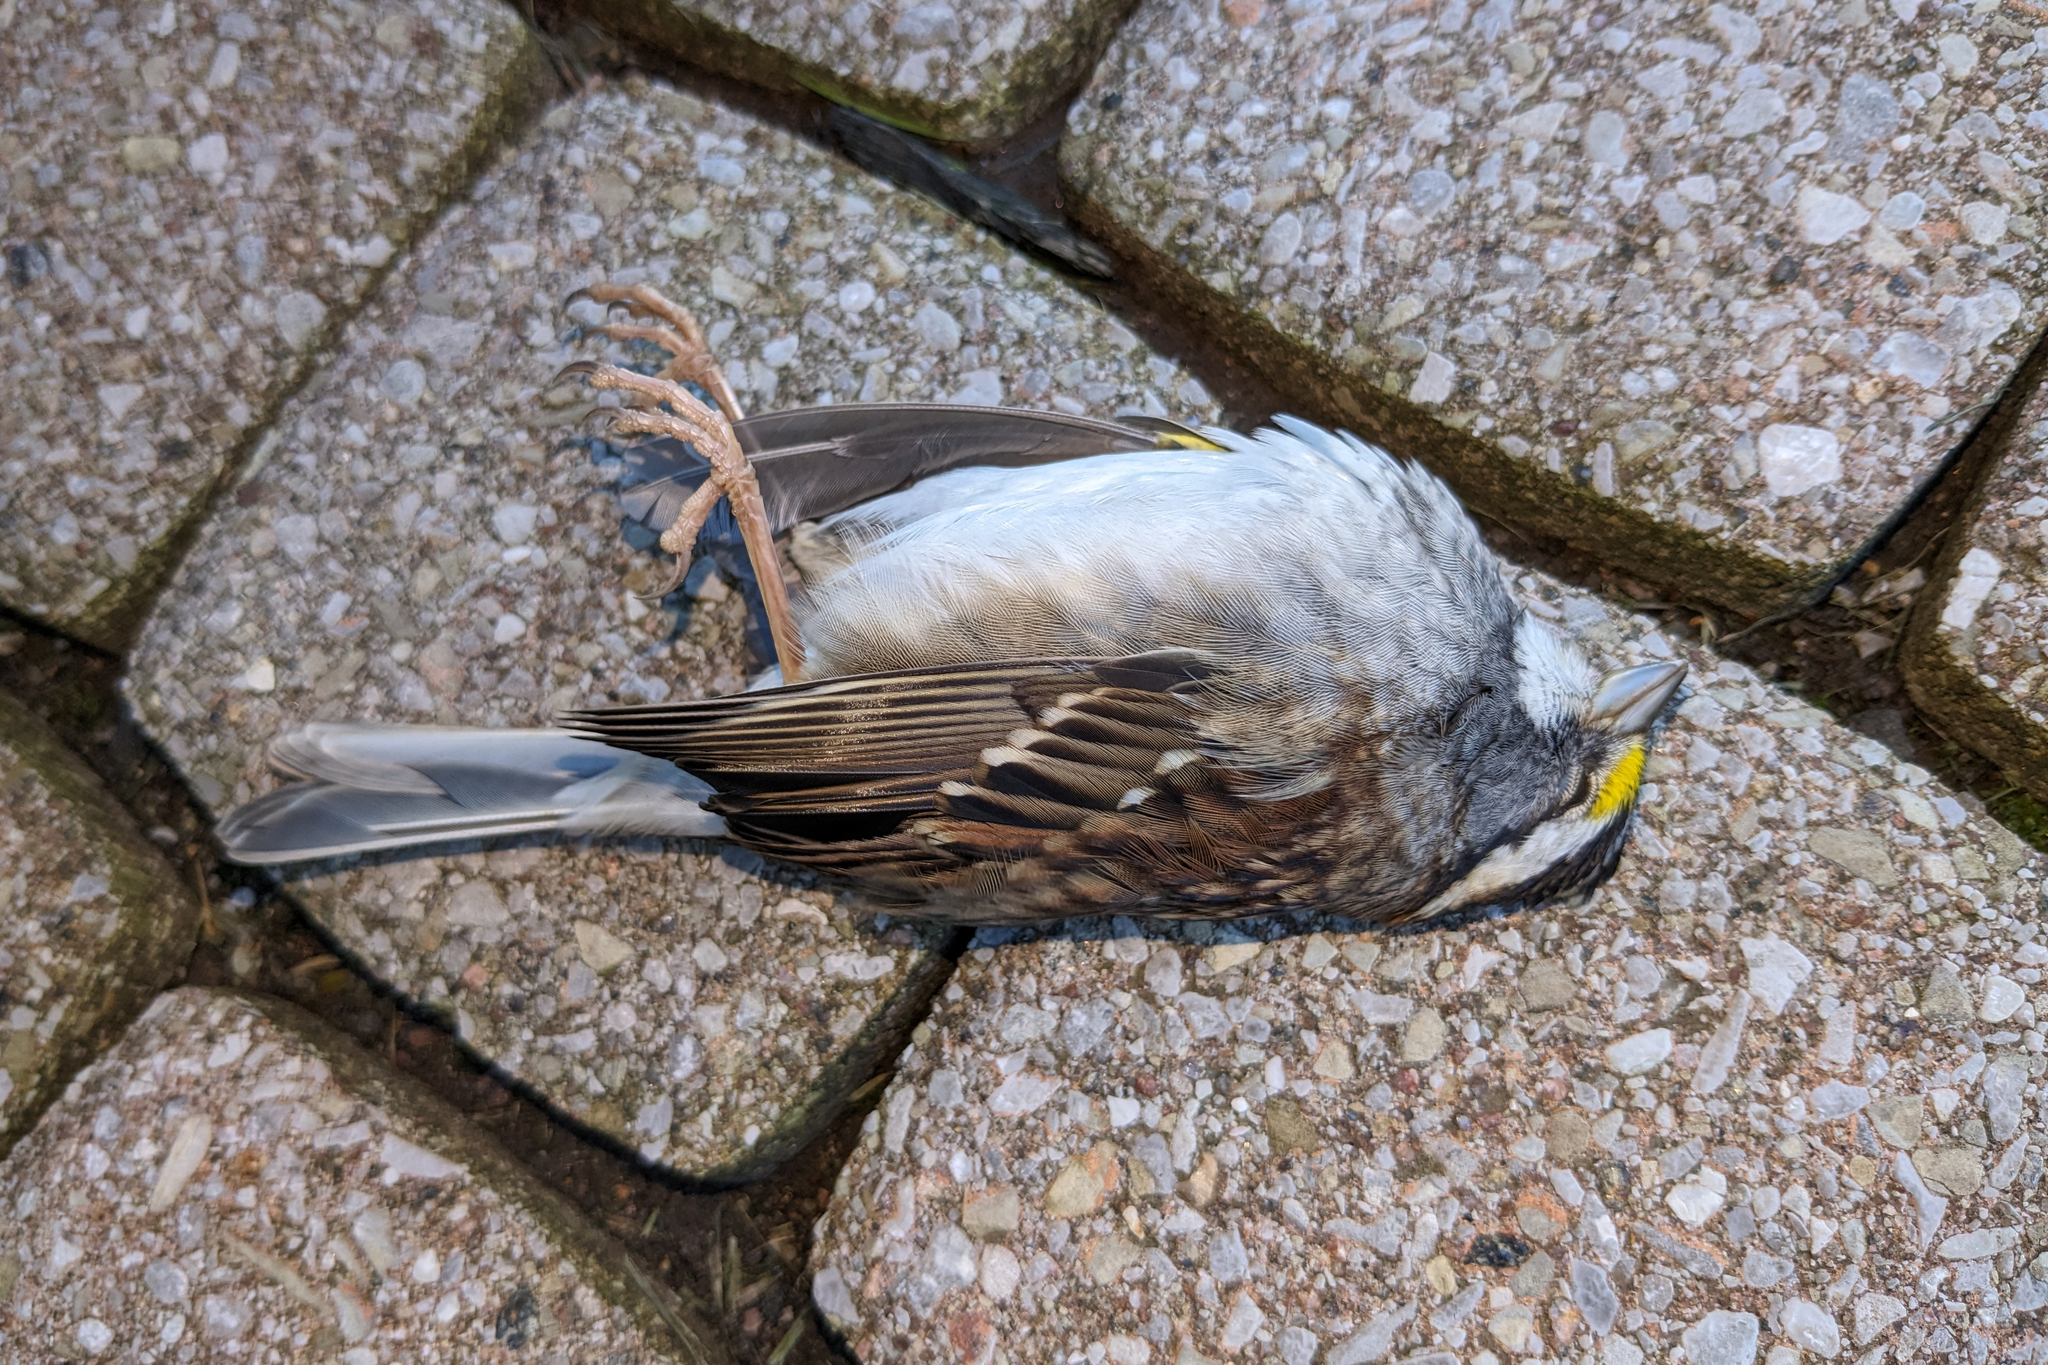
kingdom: Animalia
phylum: Chordata
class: Aves
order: Passeriformes
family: Passerellidae
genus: Zonotrichia
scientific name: Zonotrichia albicollis
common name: White-throated sparrow
